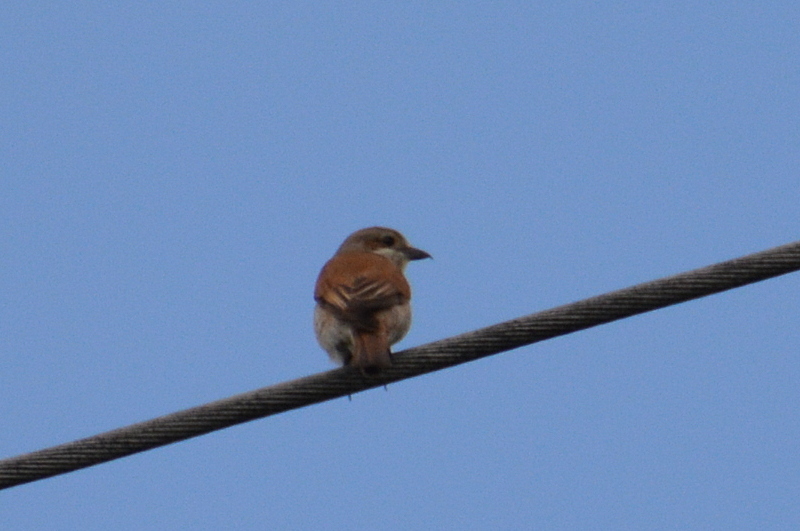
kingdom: Animalia
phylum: Chordata
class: Aves
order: Passeriformes
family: Laniidae
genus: Lanius
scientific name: Lanius collurio
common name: Red-backed shrike
